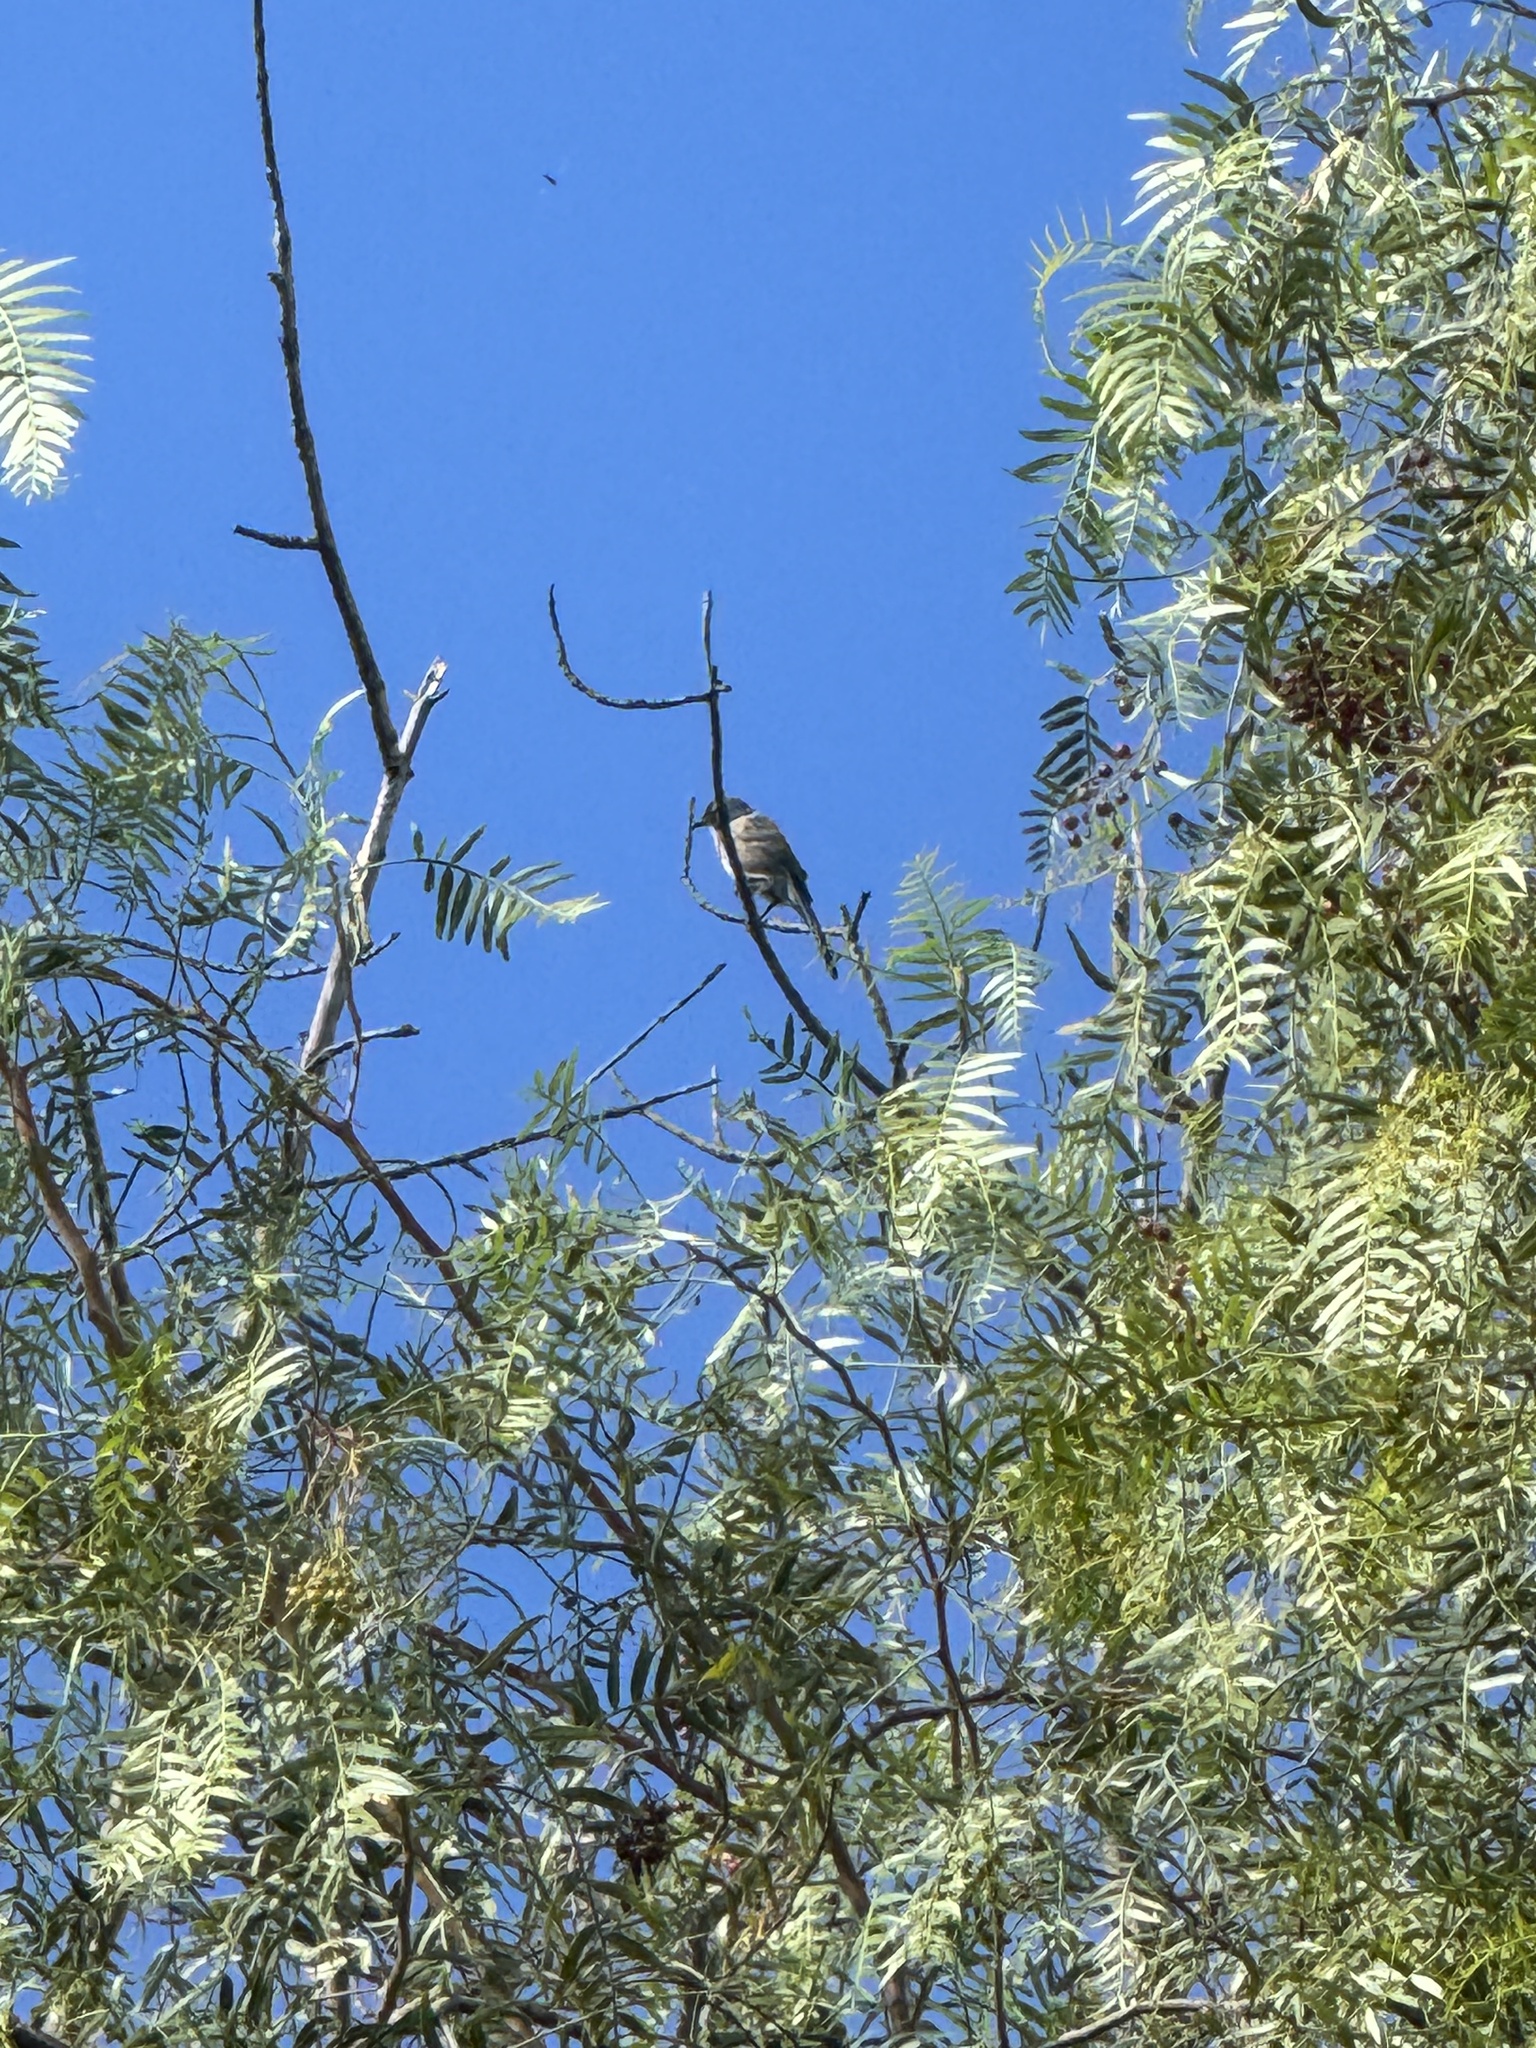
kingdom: Animalia
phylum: Chordata
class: Aves
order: Passeriformes
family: Corvidae
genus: Aphelocoma
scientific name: Aphelocoma californica
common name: California scrub-jay
